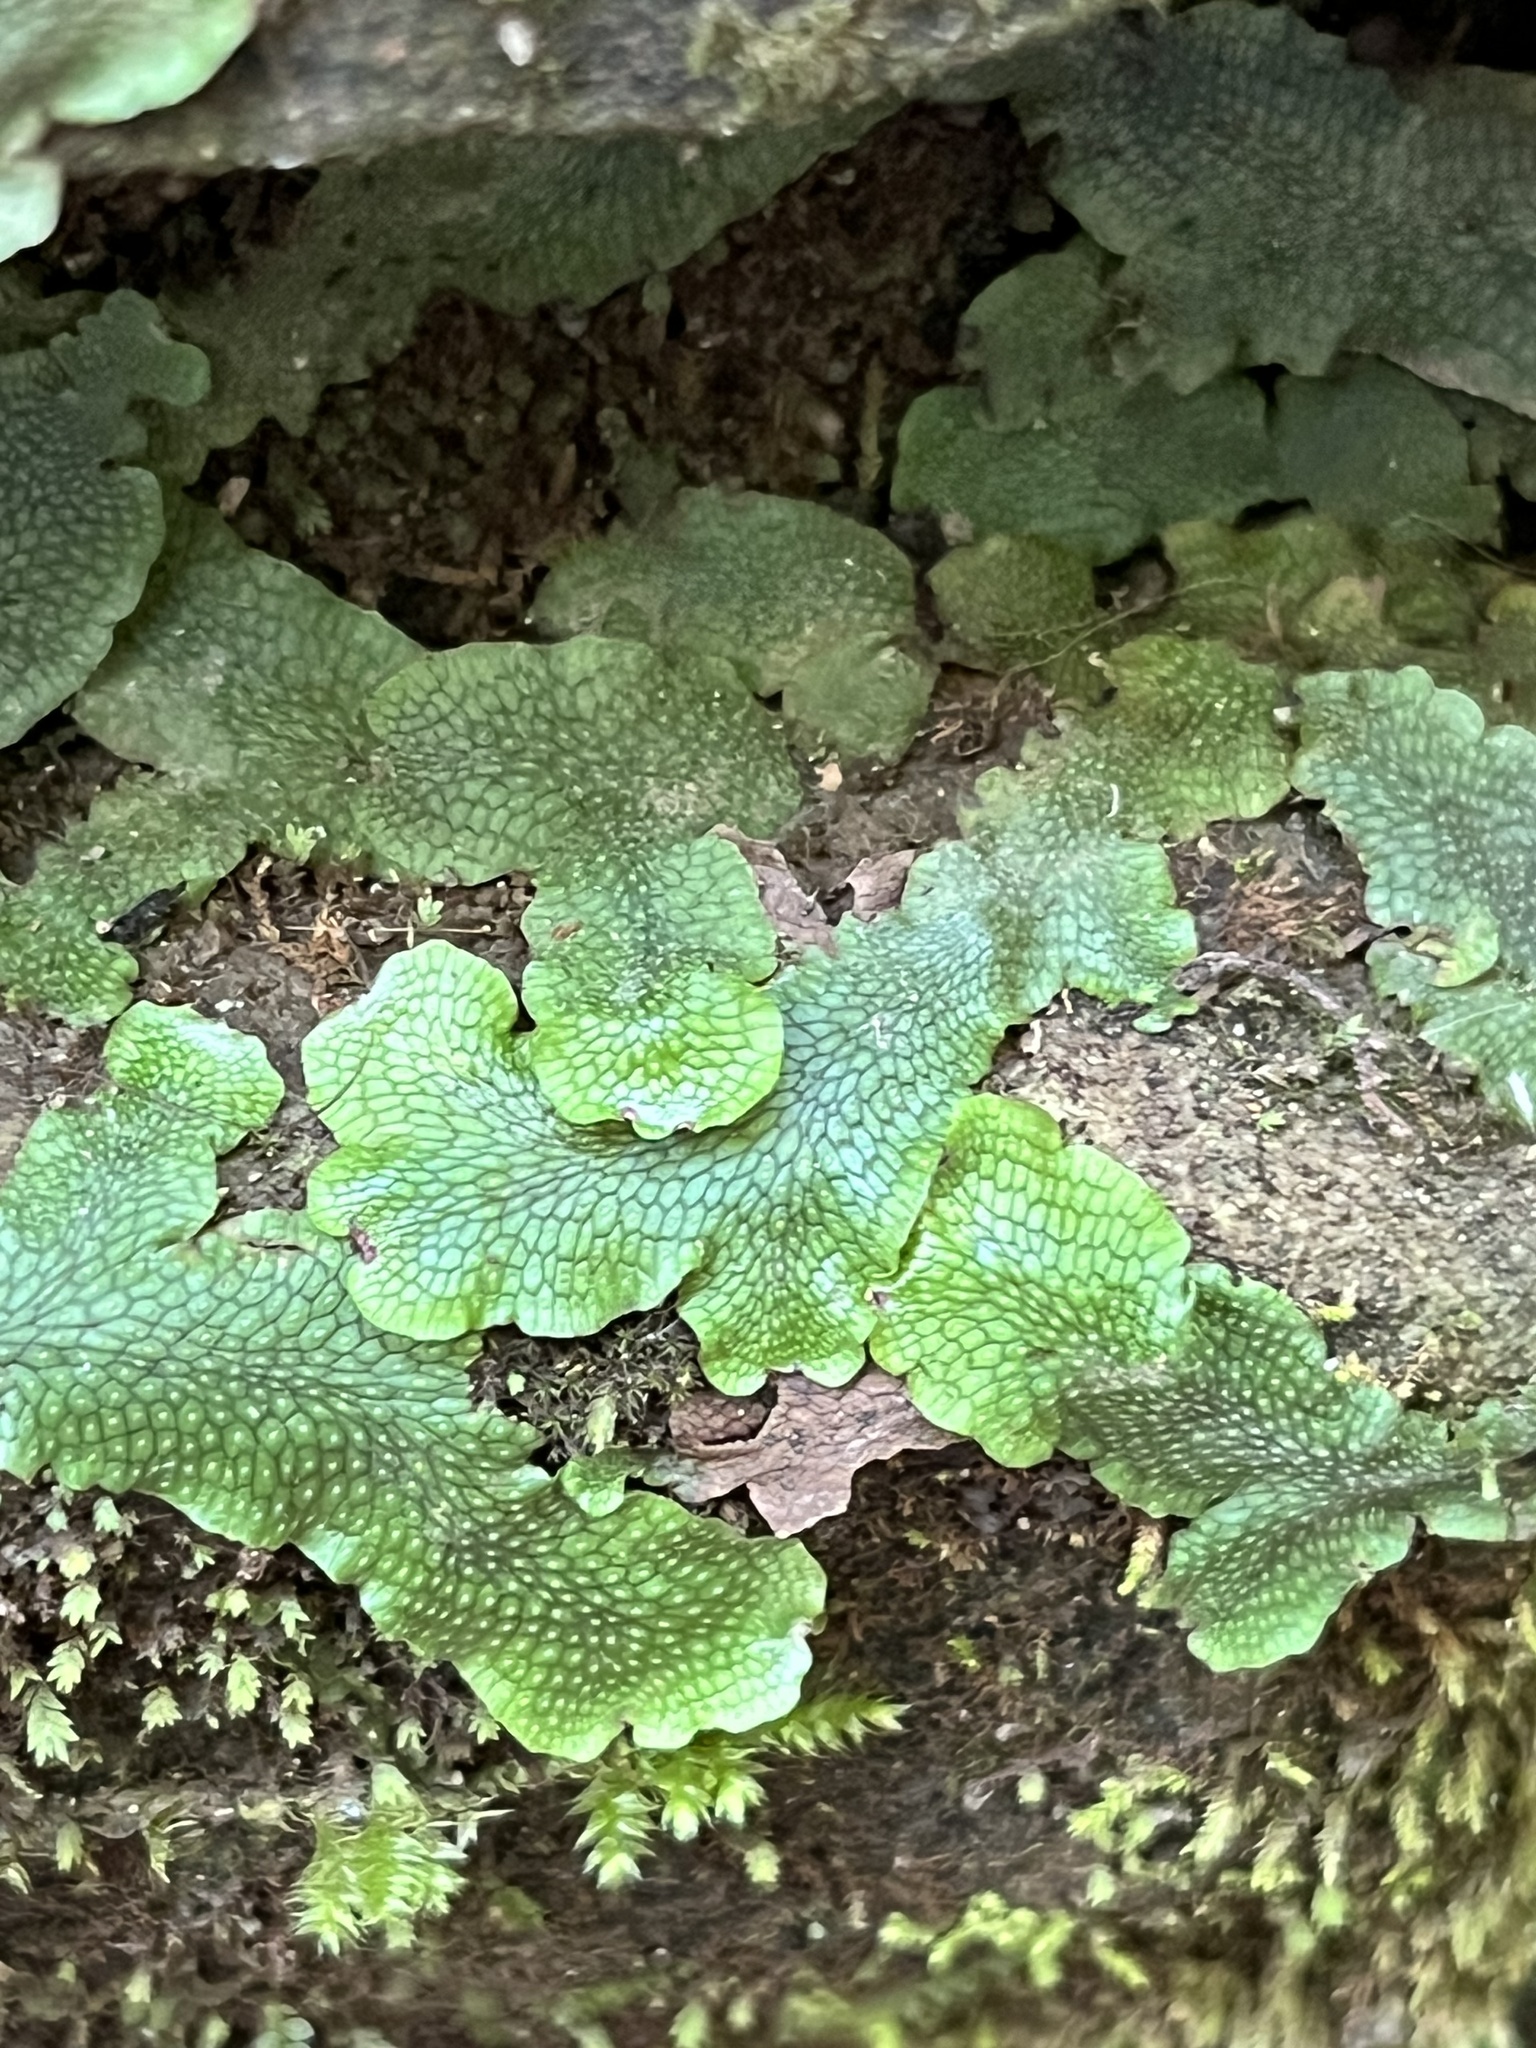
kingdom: Plantae
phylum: Marchantiophyta
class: Marchantiopsida
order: Marchantiales
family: Conocephalaceae
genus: Conocephalum
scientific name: Conocephalum salebrosum
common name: Cat-tongue liverwort
